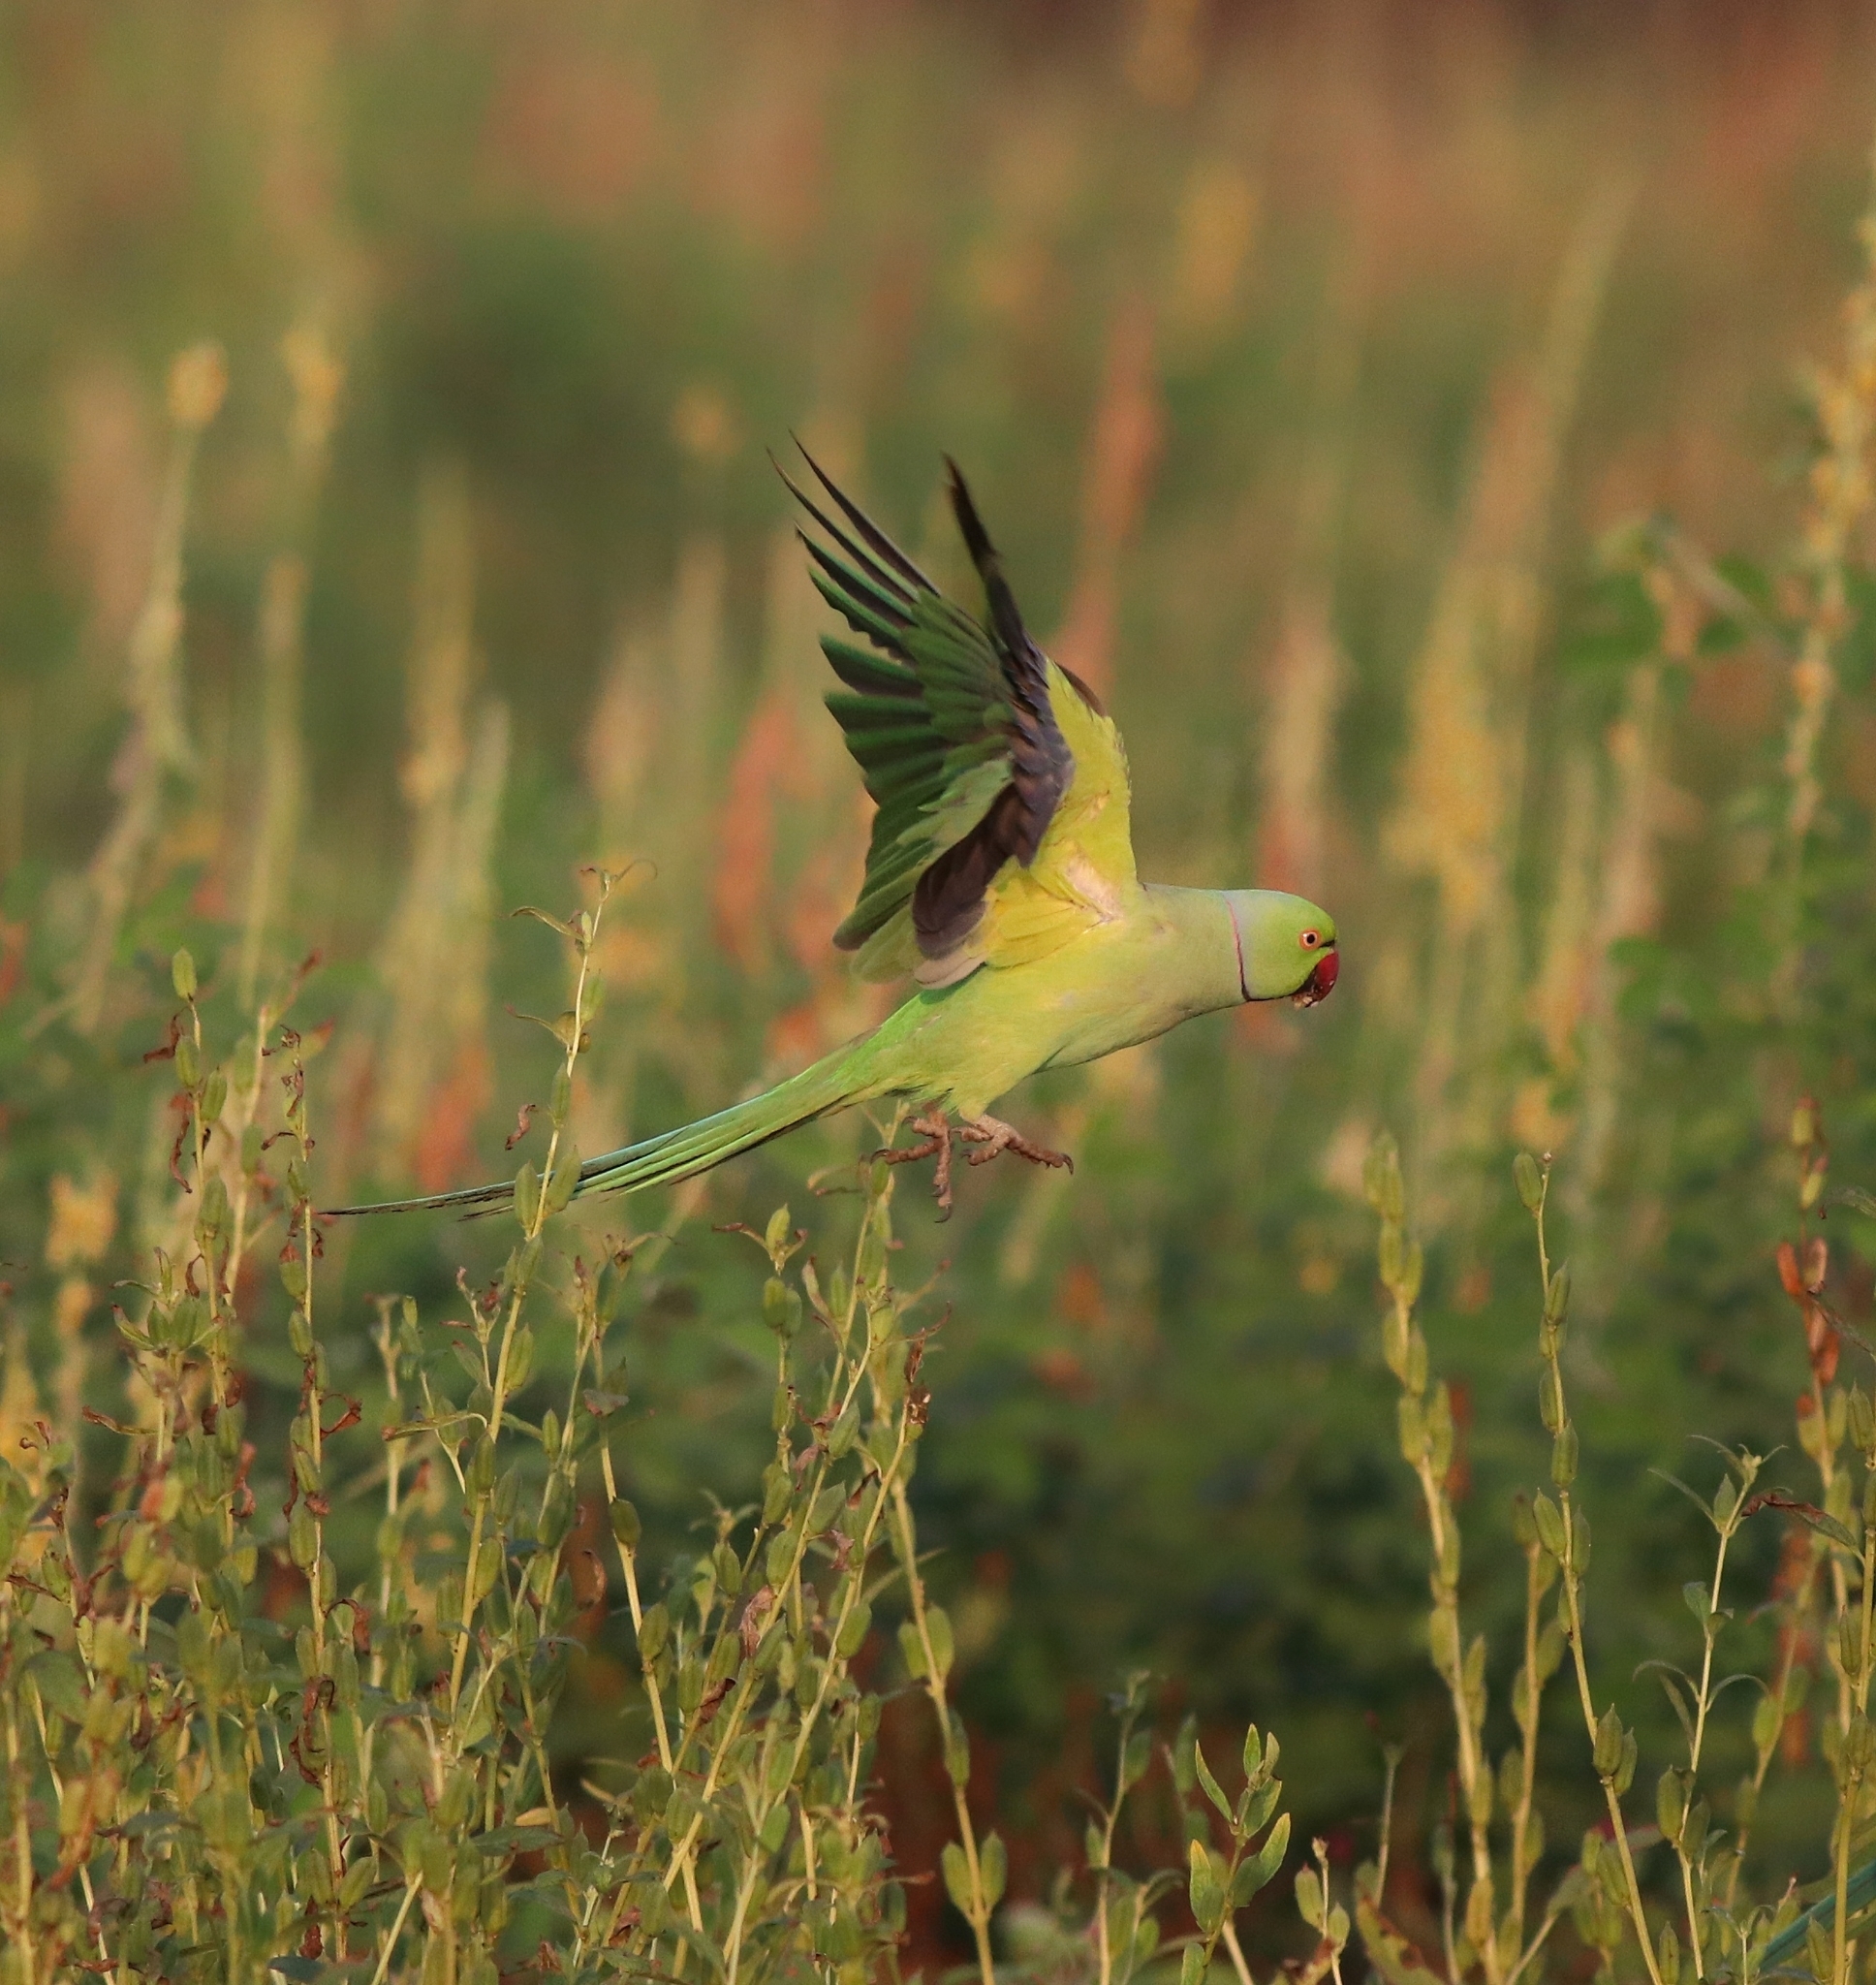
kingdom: Animalia
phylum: Chordata
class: Aves
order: Psittaciformes
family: Psittacidae
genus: Psittacula
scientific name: Psittacula krameri
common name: Rose-ringed parakeet
